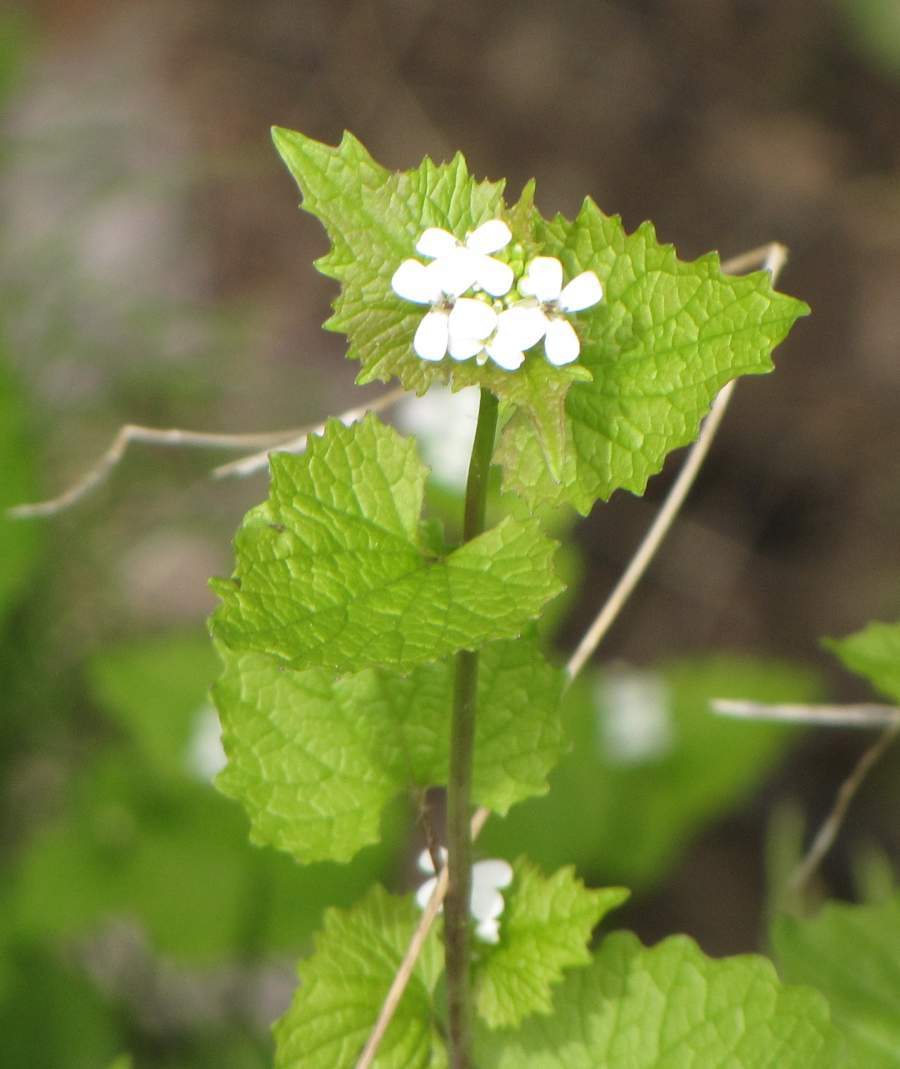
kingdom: Plantae
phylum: Tracheophyta
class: Magnoliopsida
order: Brassicales
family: Brassicaceae
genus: Alliaria
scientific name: Alliaria petiolata
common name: Garlic mustard
